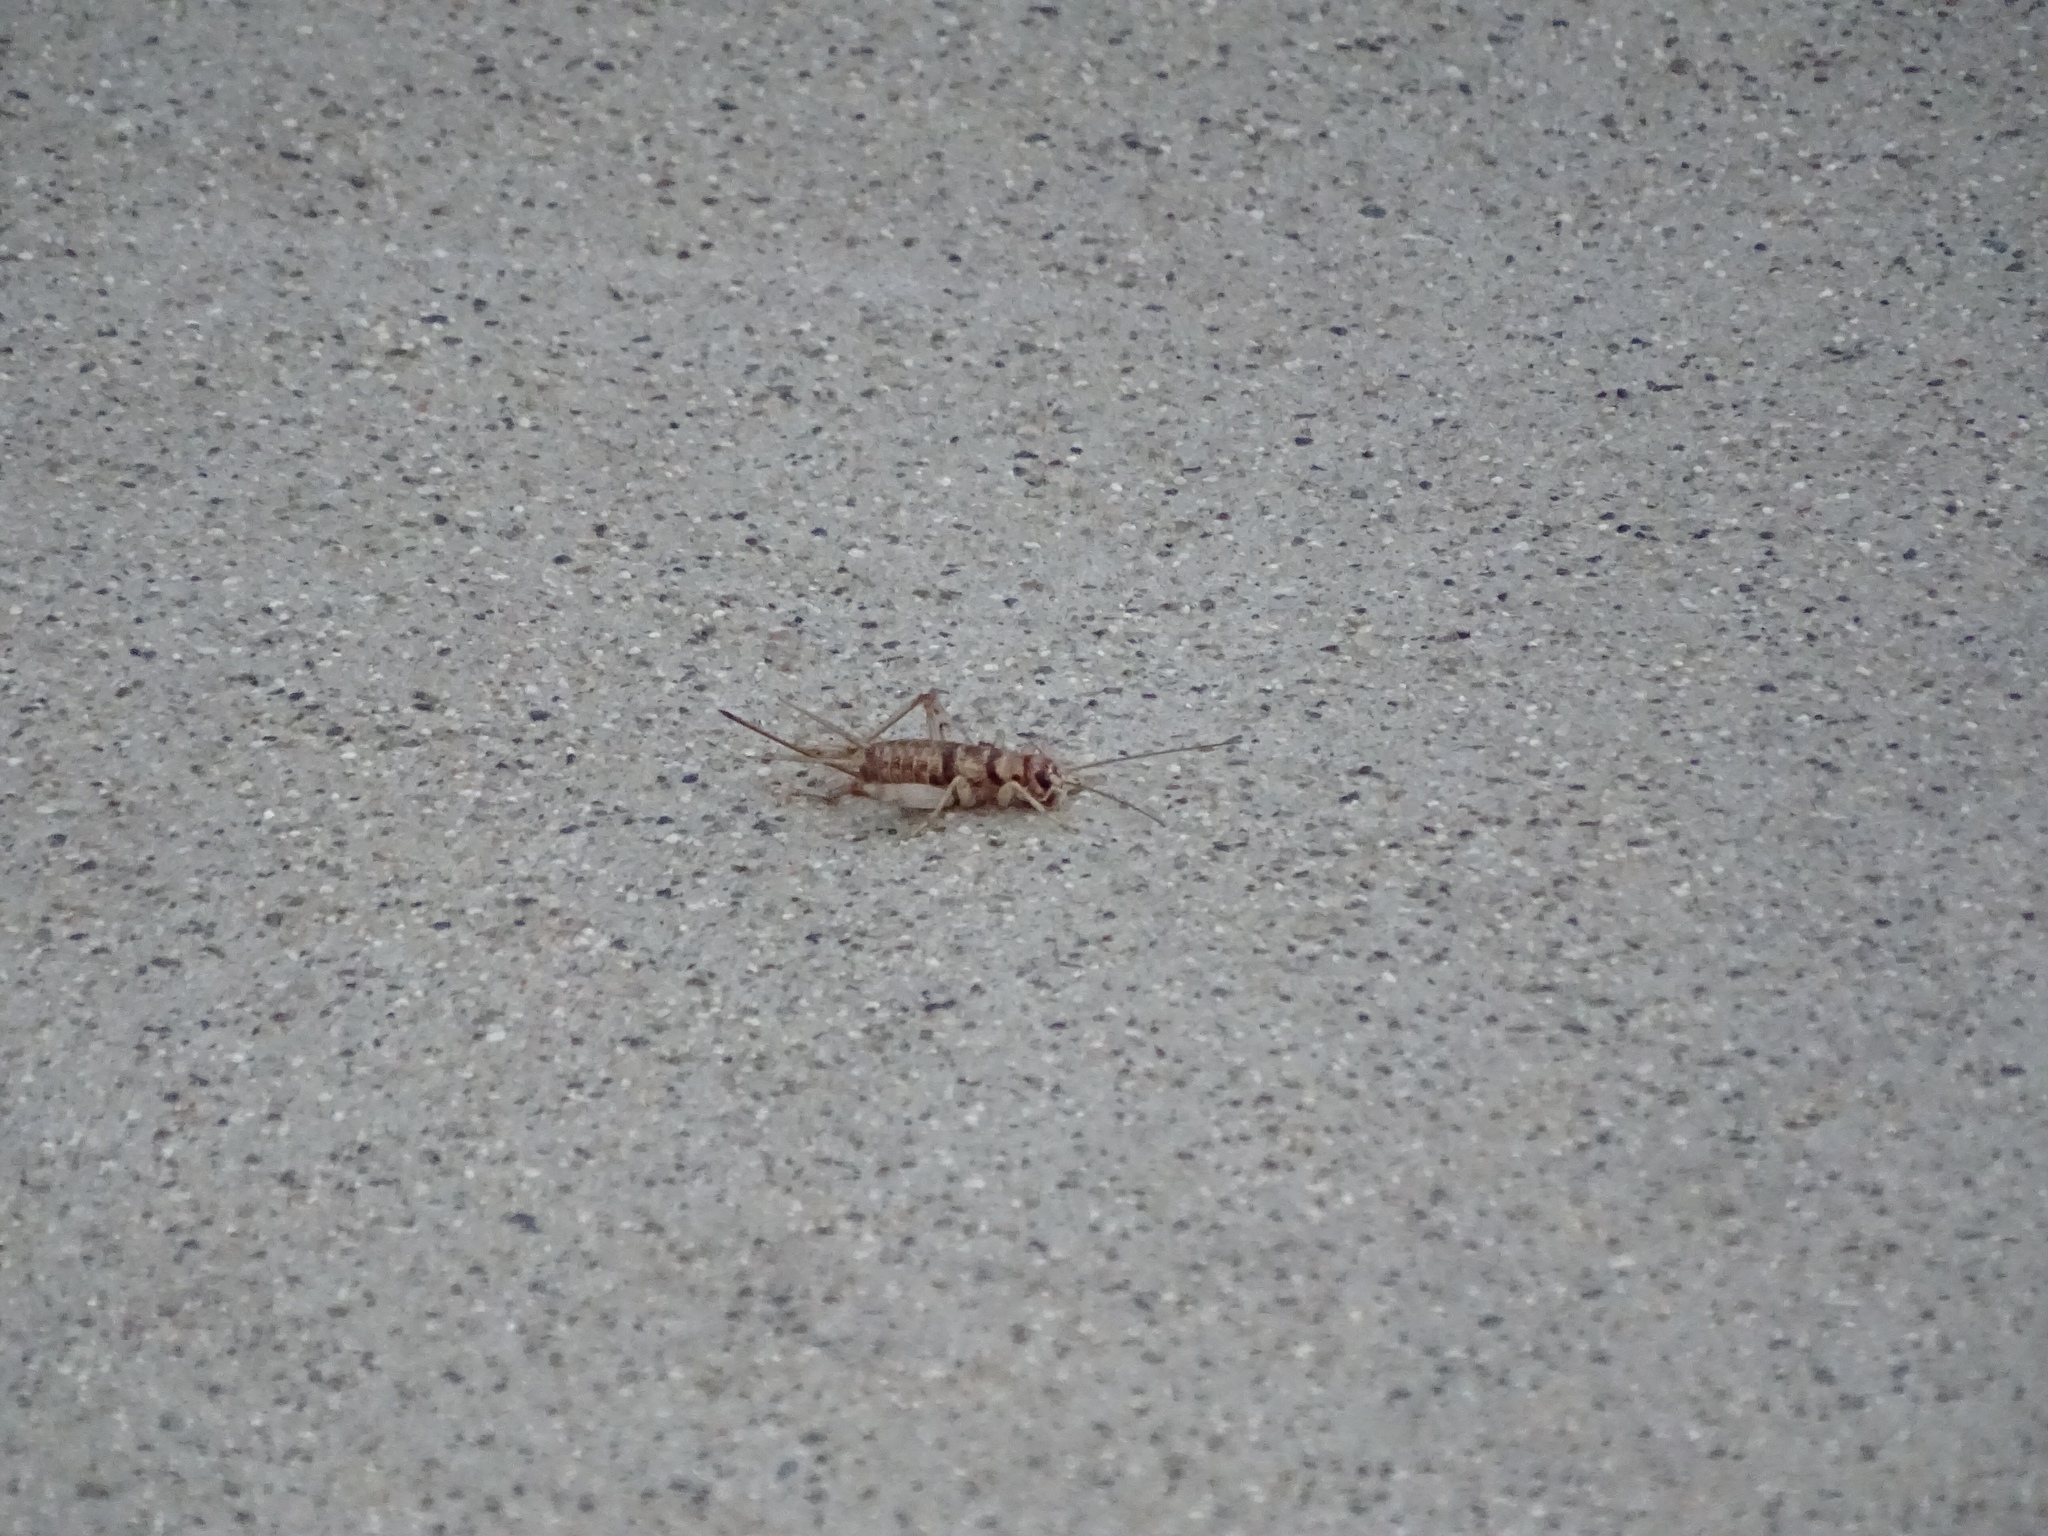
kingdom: Animalia
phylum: Arthropoda
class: Insecta
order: Orthoptera
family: Gryllidae
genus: Gryllodes
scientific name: Gryllodes sigillatus
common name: Tropical house cricket
